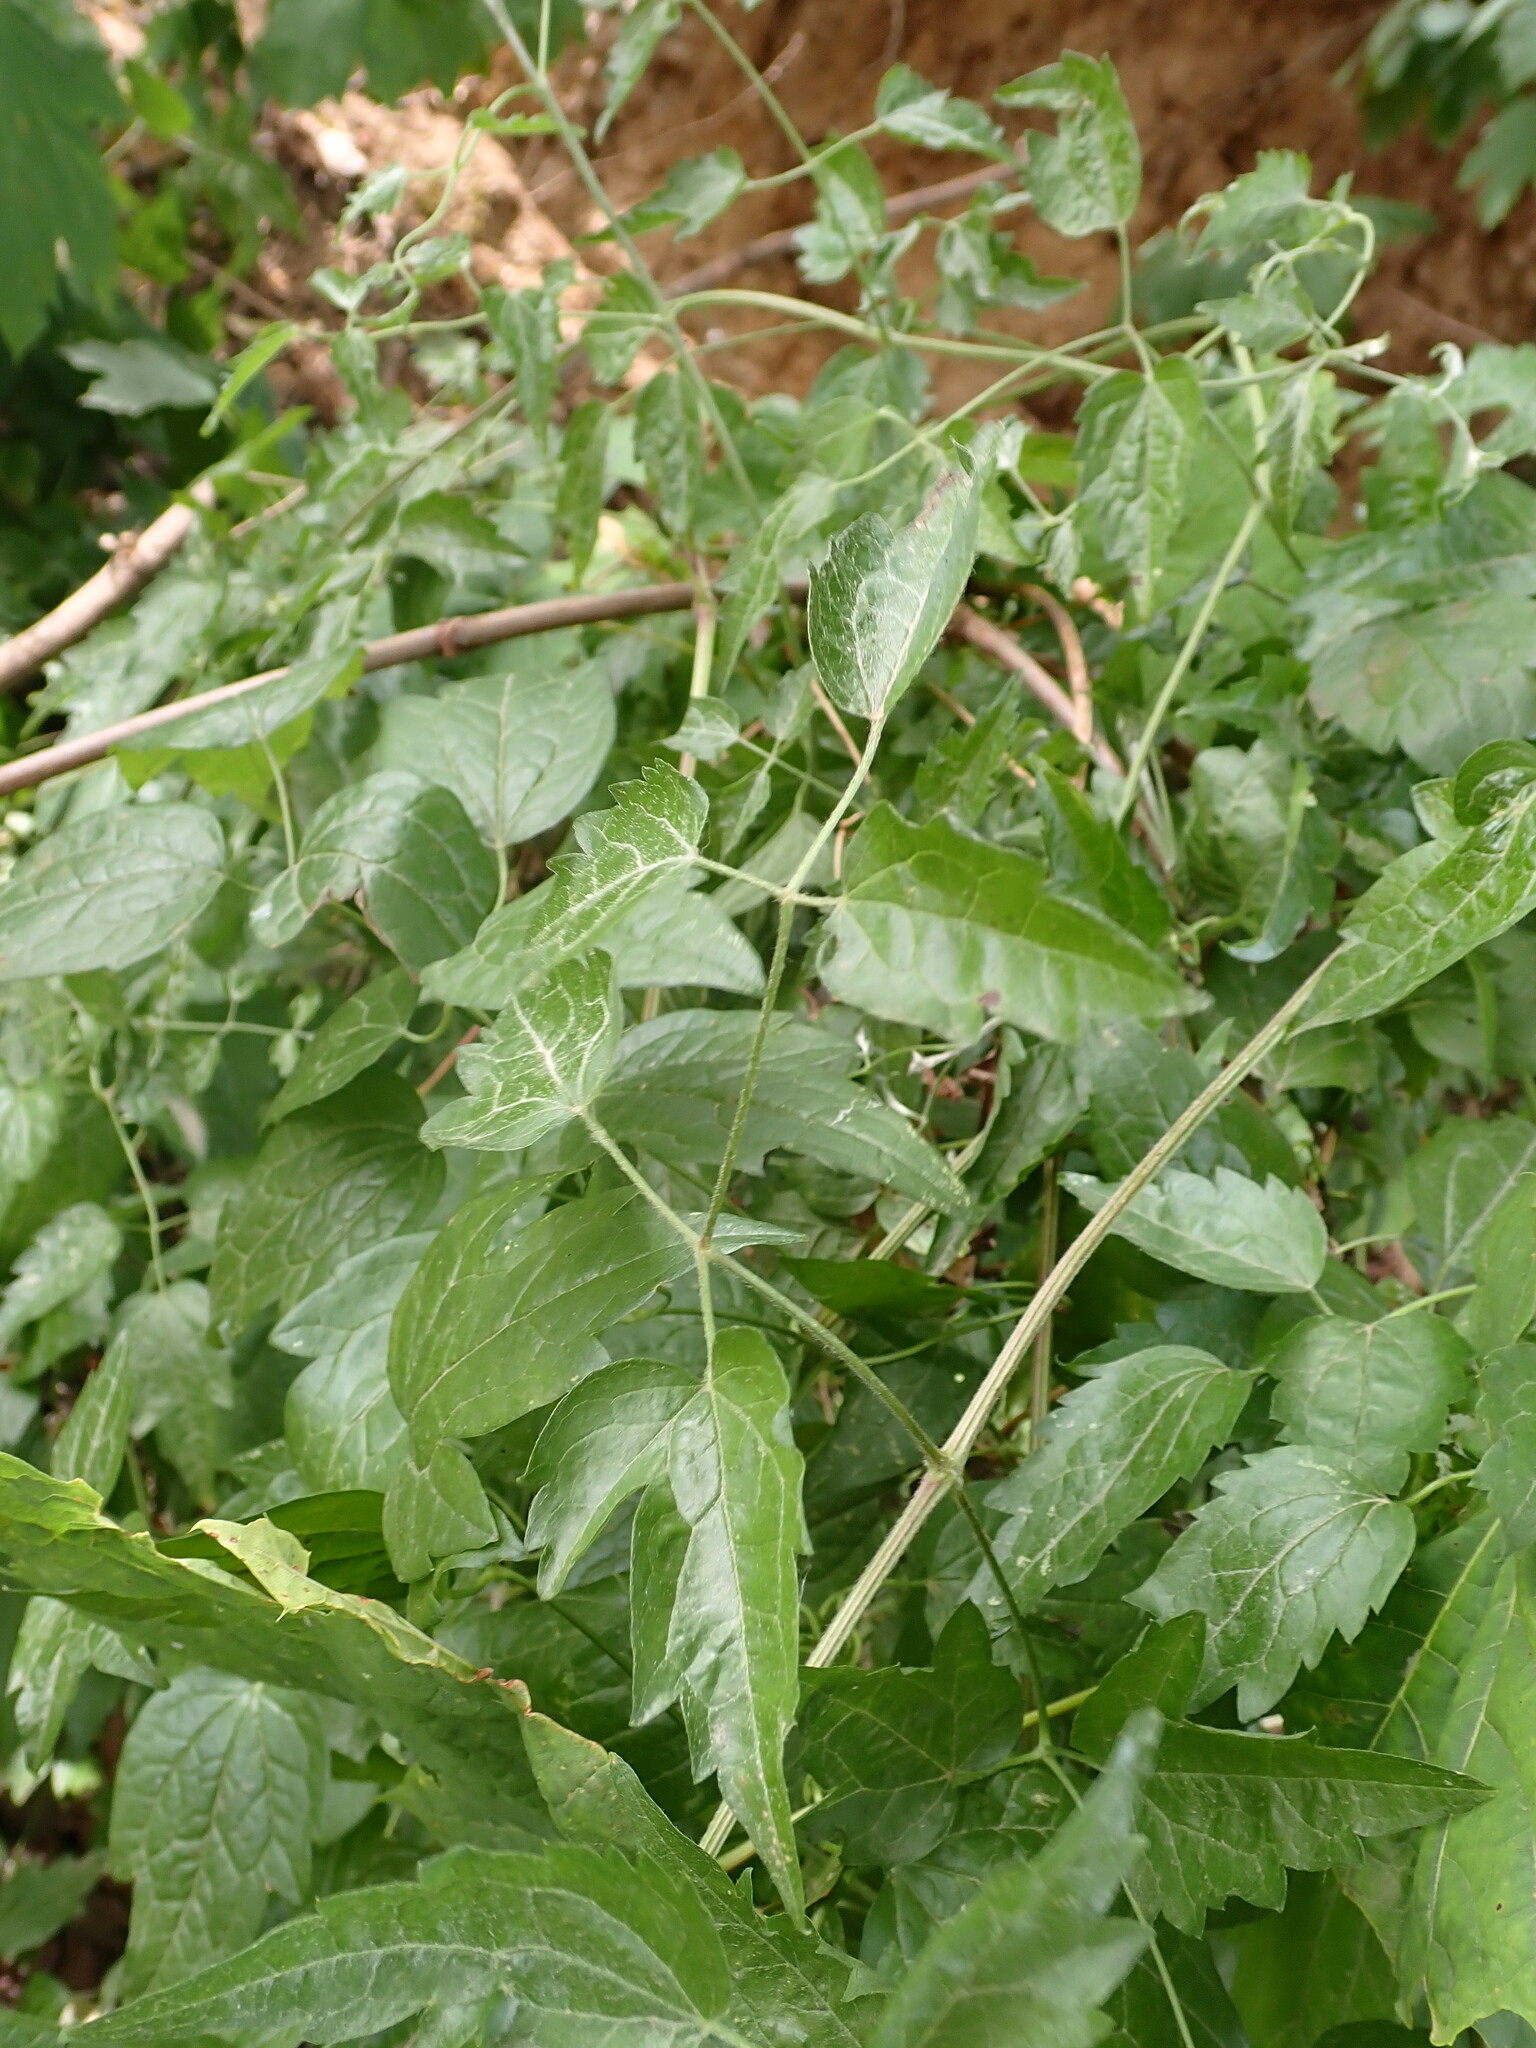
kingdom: Plantae
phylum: Tracheophyta
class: Magnoliopsida
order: Ranunculales
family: Ranunculaceae
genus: Clematis
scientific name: Clematis vitalba
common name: Evergreen clematis
